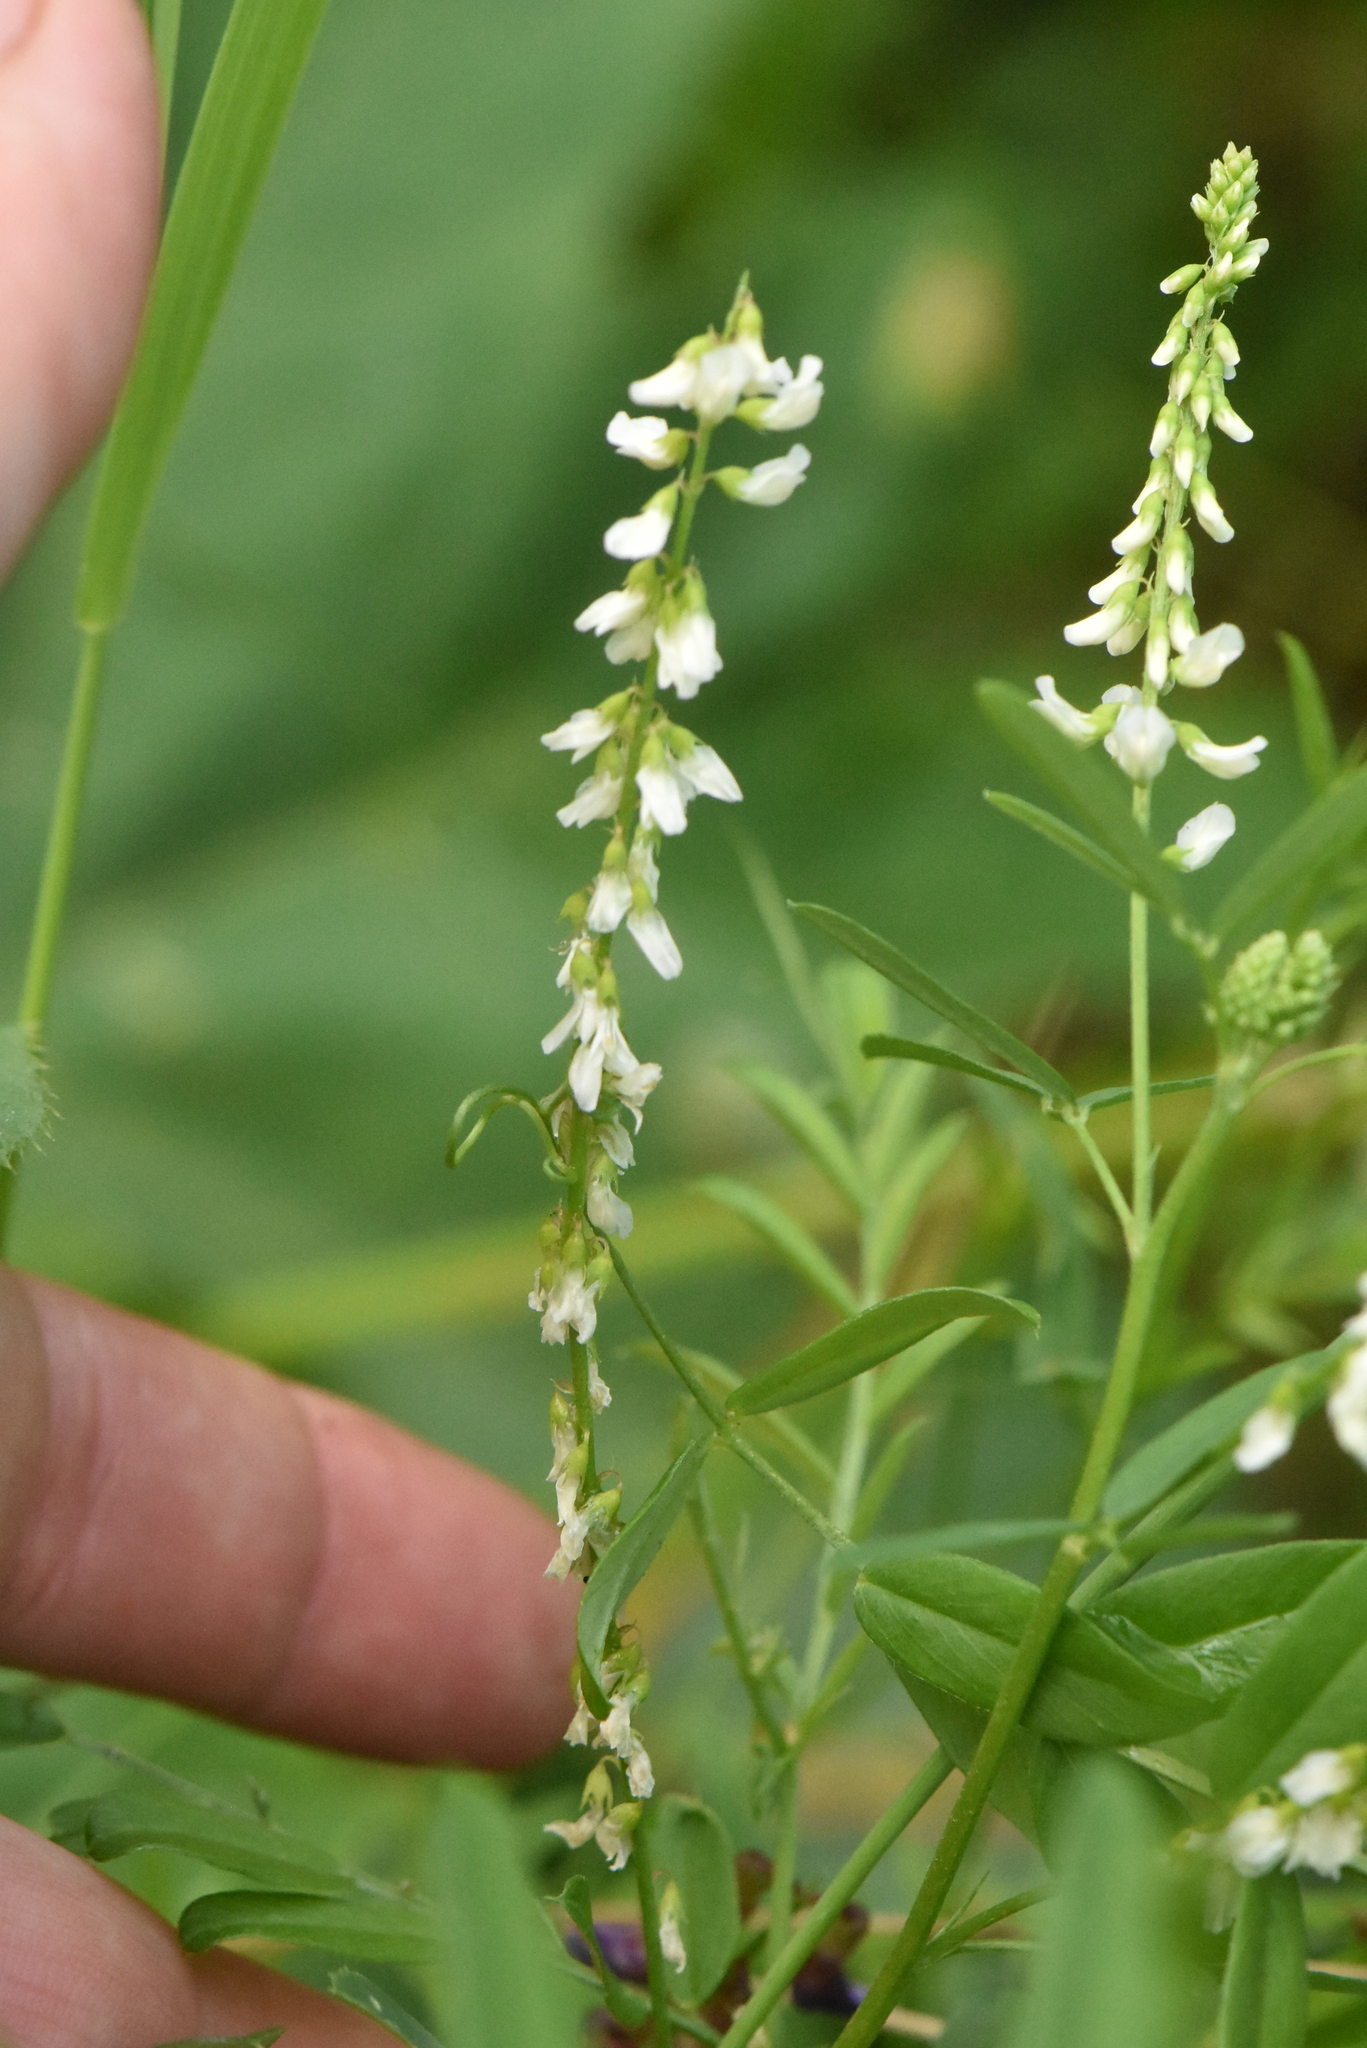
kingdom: Plantae
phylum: Tracheophyta
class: Magnoliopsida
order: Fabales
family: Fabaceae
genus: Melilotus
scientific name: Melilotus albus
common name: White melilot
